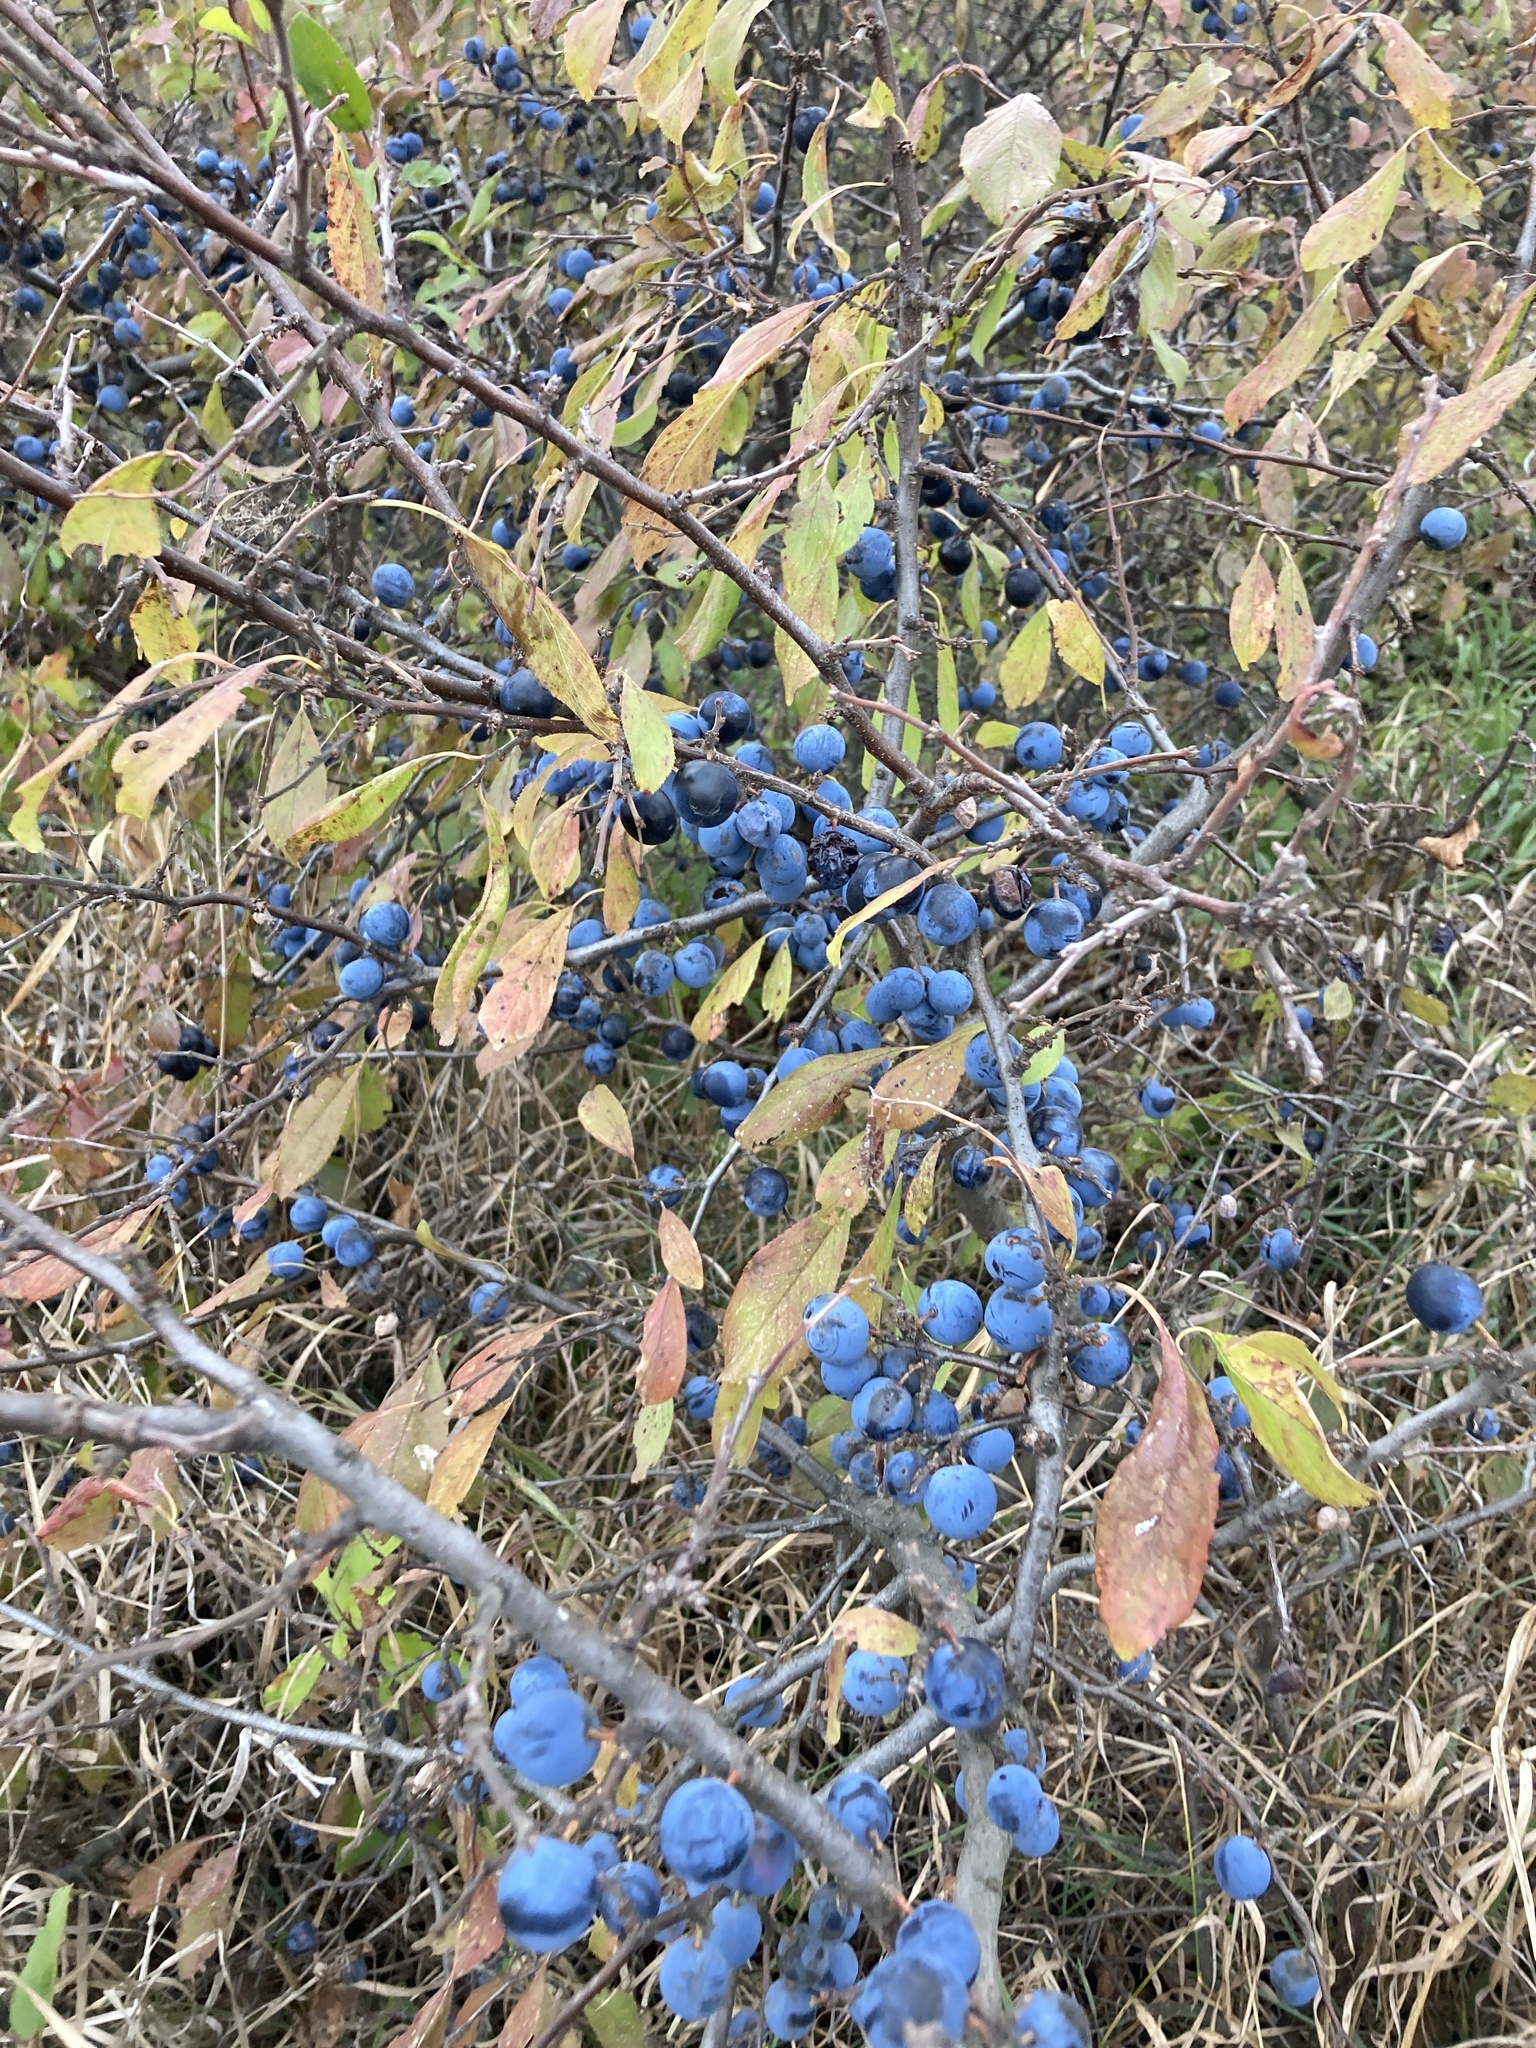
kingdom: Plantae
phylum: Tracheophyta
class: Magnoliopsida
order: Rosales
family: Rosaceae
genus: Prunus
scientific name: Prunus spinosa
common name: Blackthorn
